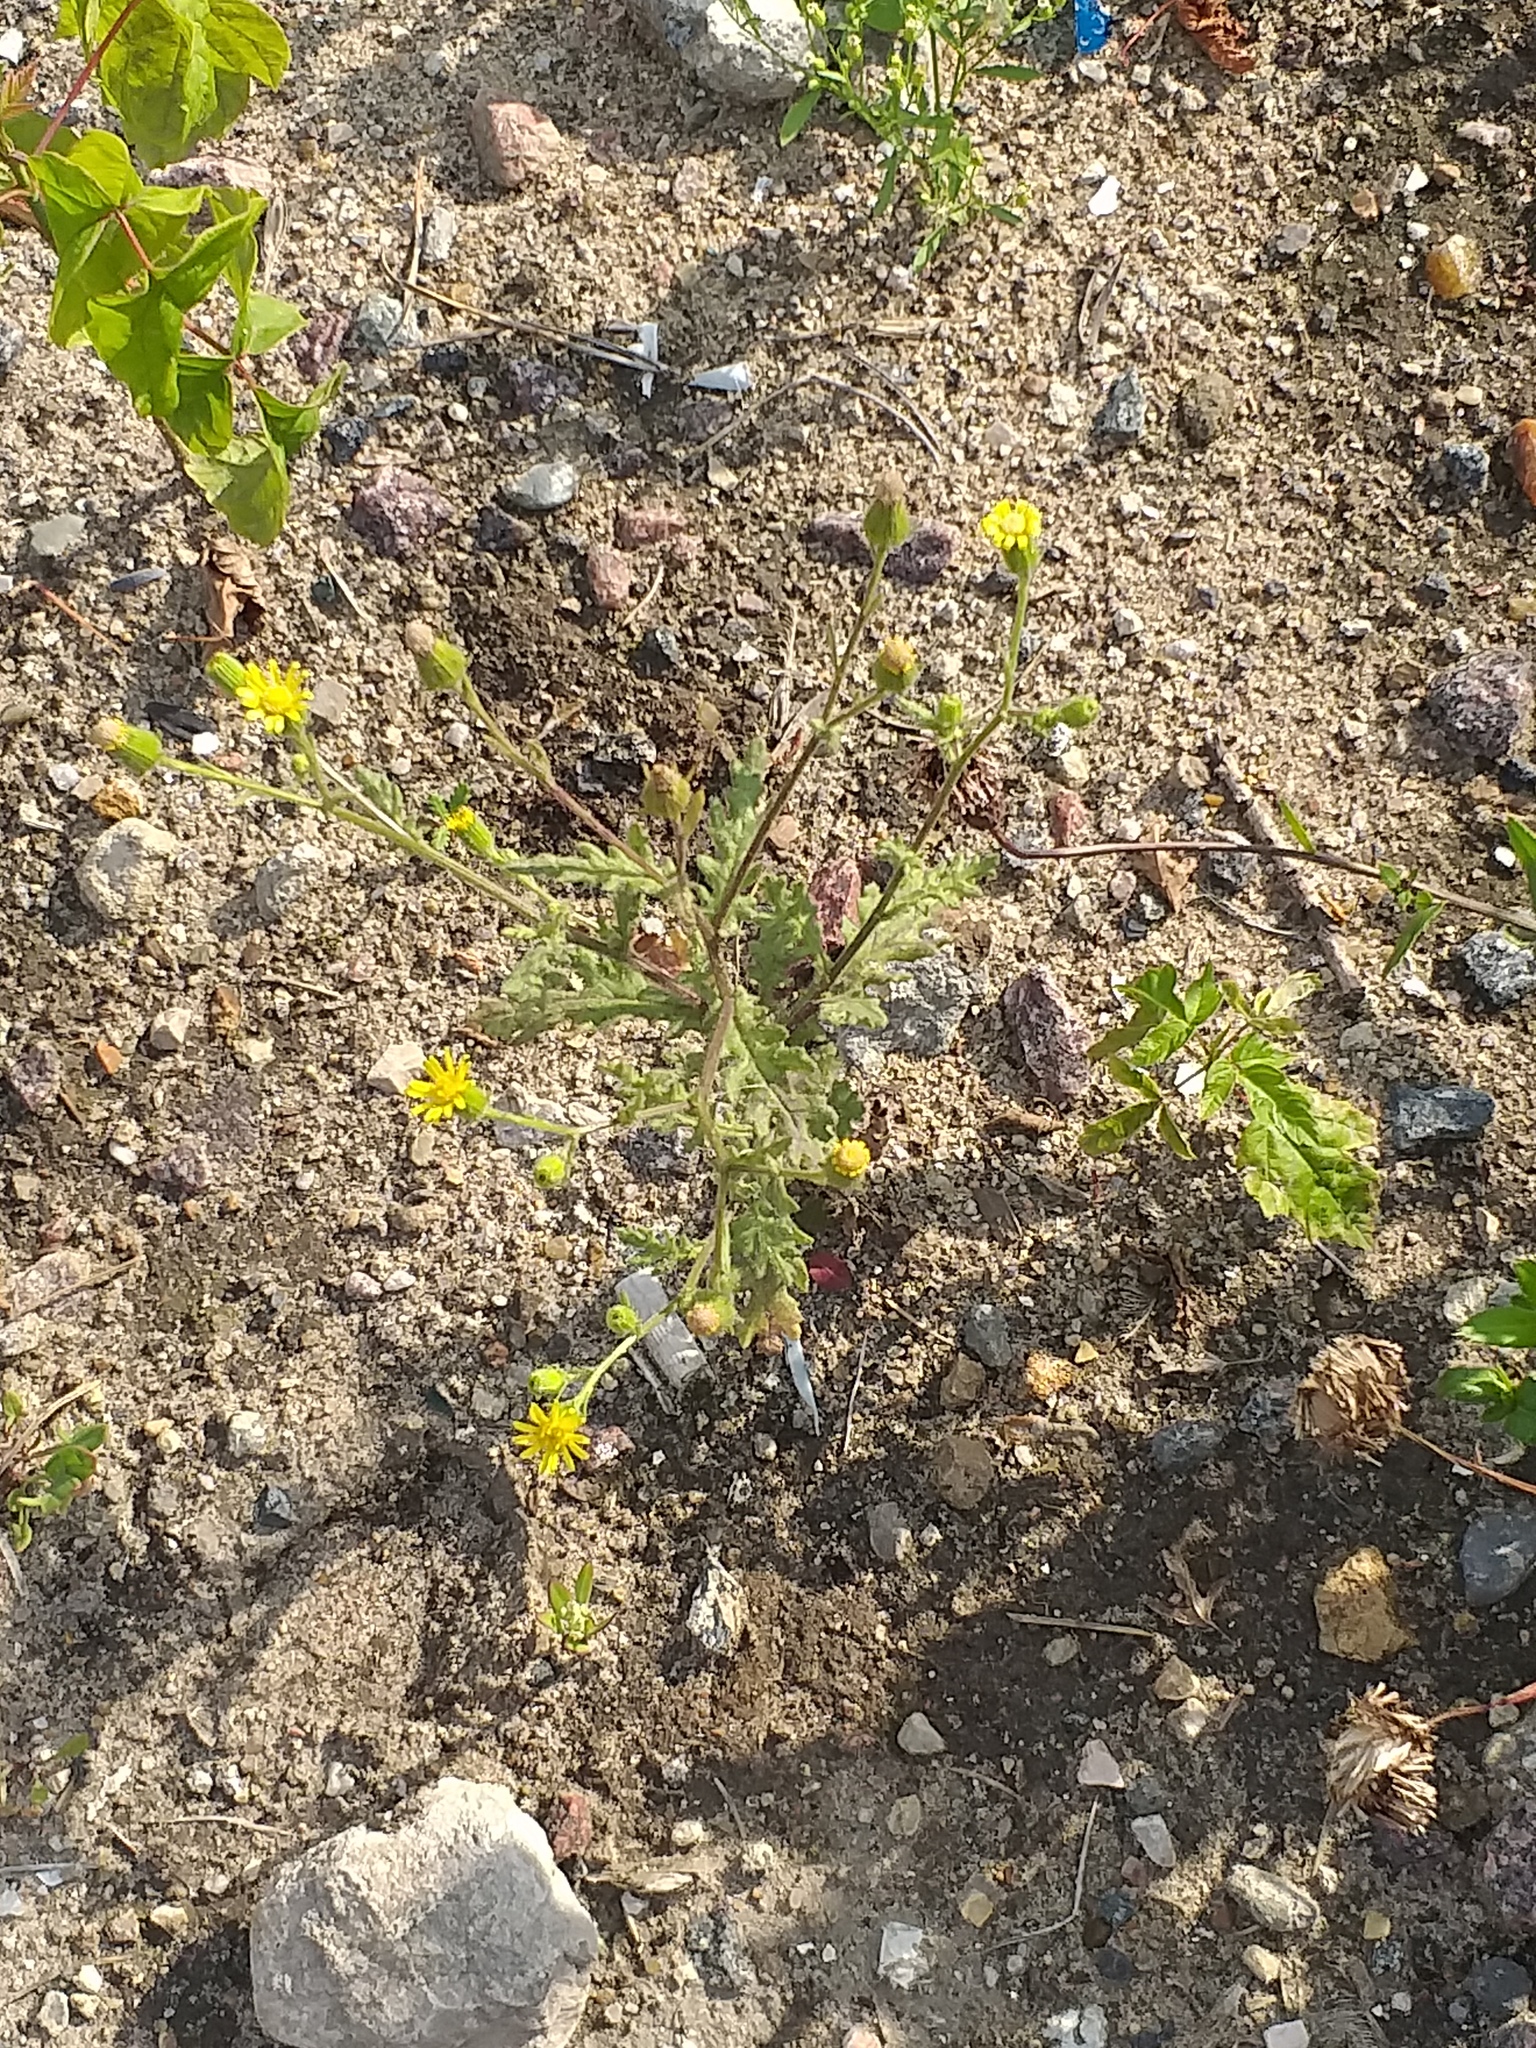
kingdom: Plantae
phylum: Tracheophyta
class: Magnoliopsida
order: Asterales
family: Asteraceae
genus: Senecio
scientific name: Senecio viscosus
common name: Sticky groundsel
